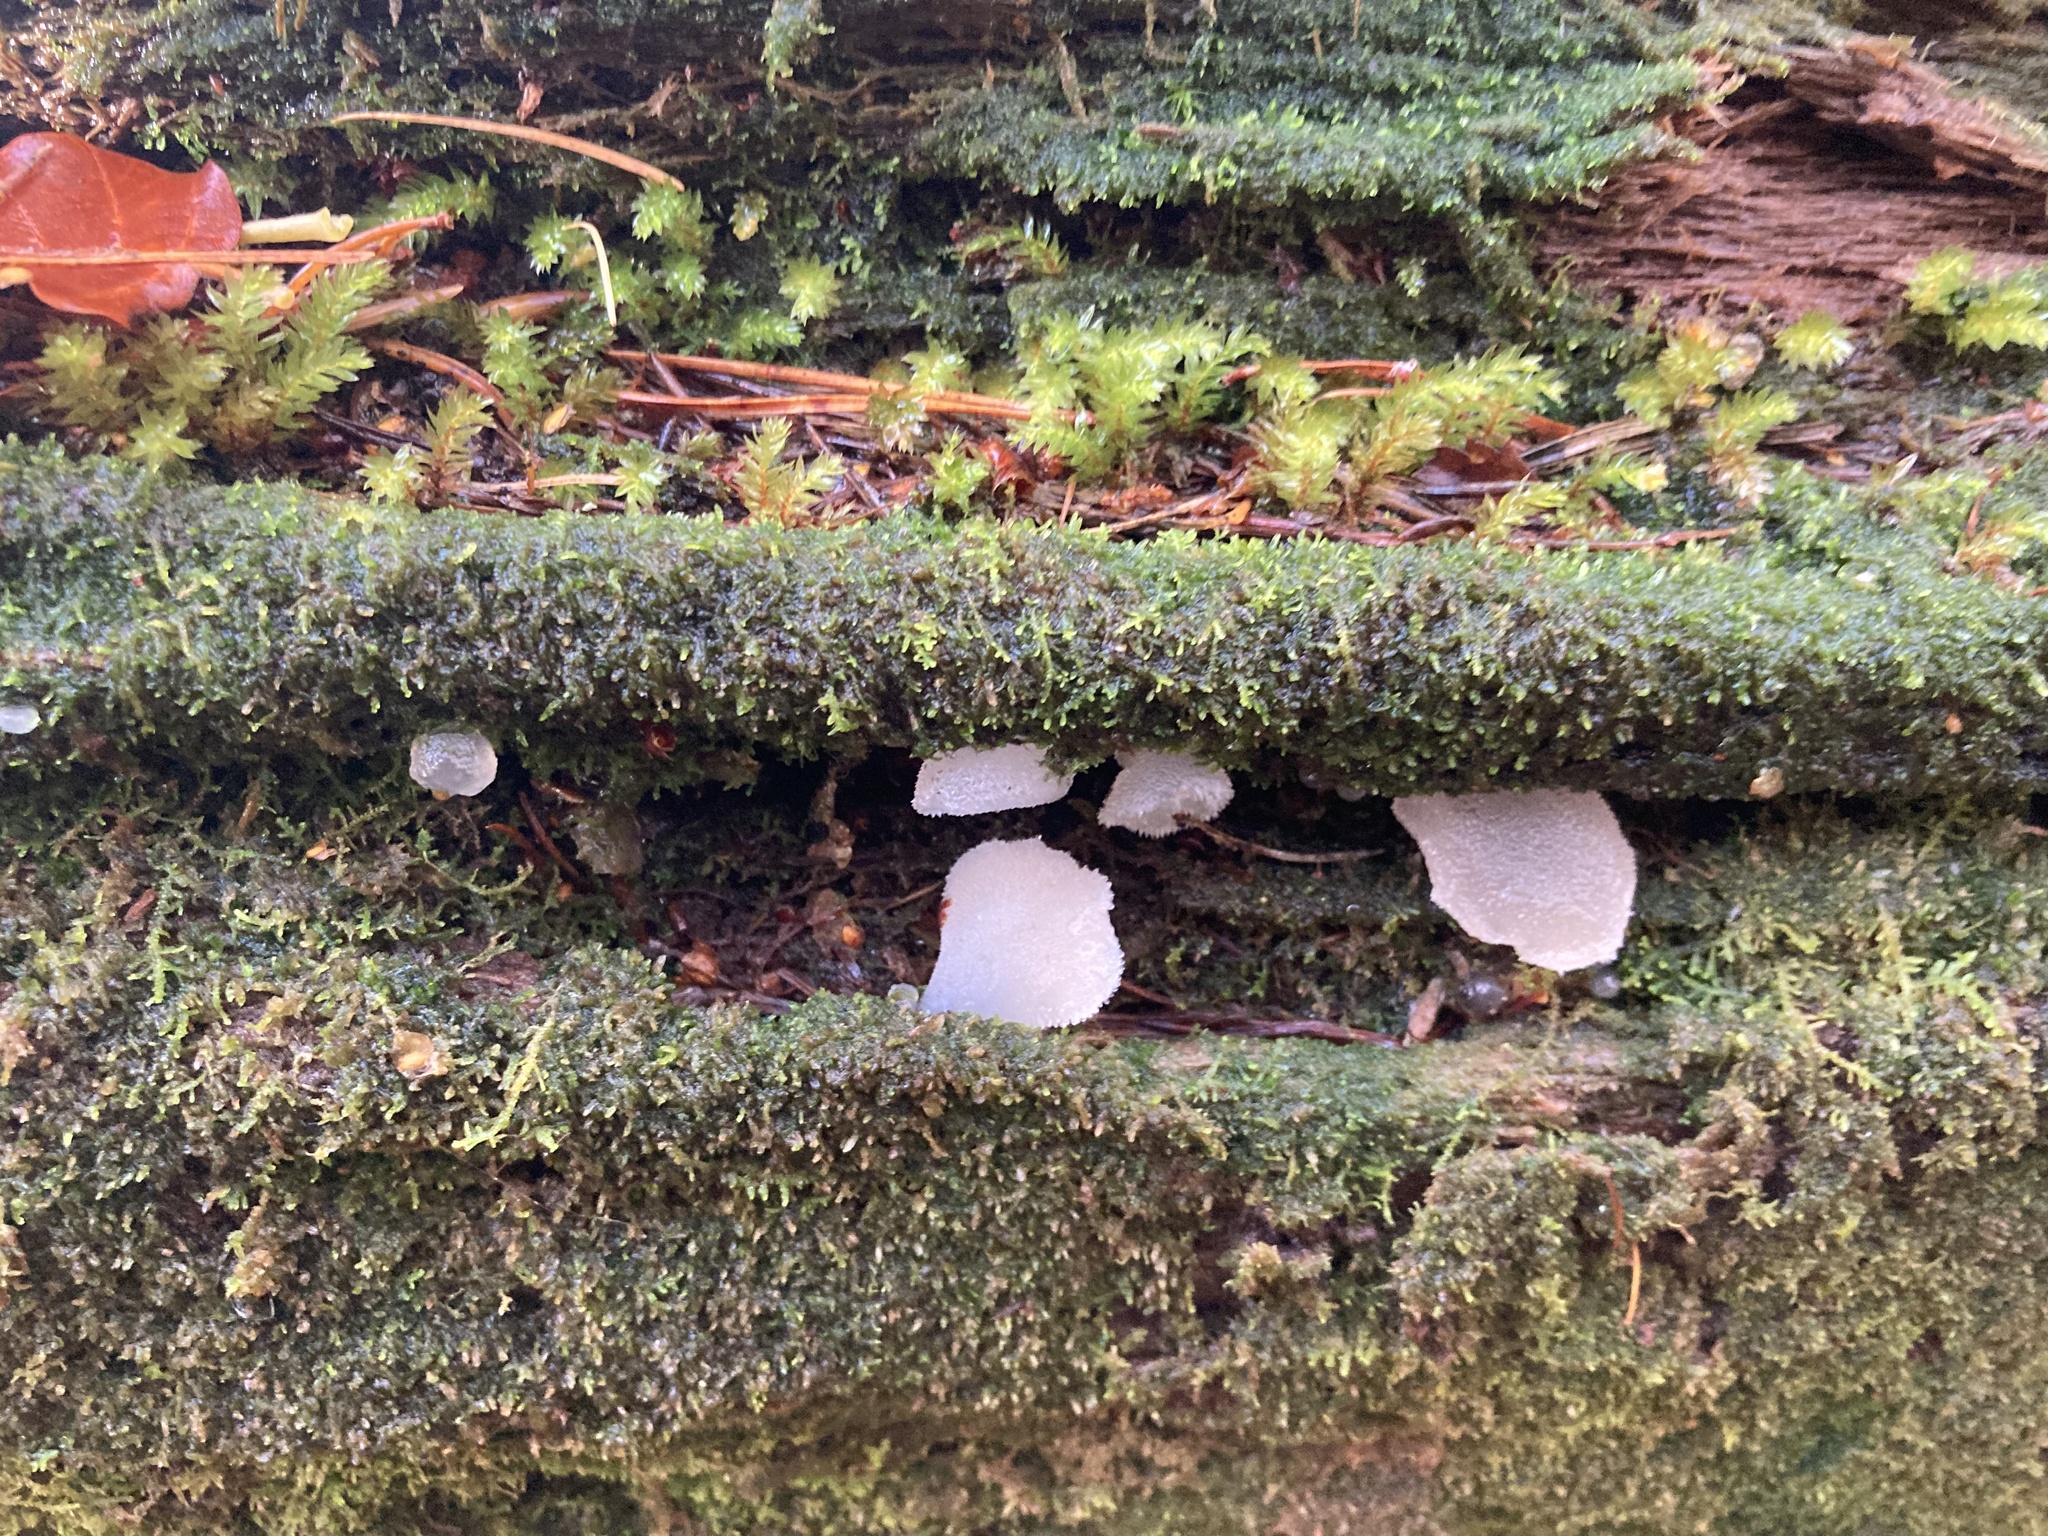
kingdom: Fungi
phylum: Basidiomycota
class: Agaricomycetes
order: Auriculariales
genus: Pseudohydnum
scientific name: Pseudohydnum gelatinosum
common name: Jelly tongue
